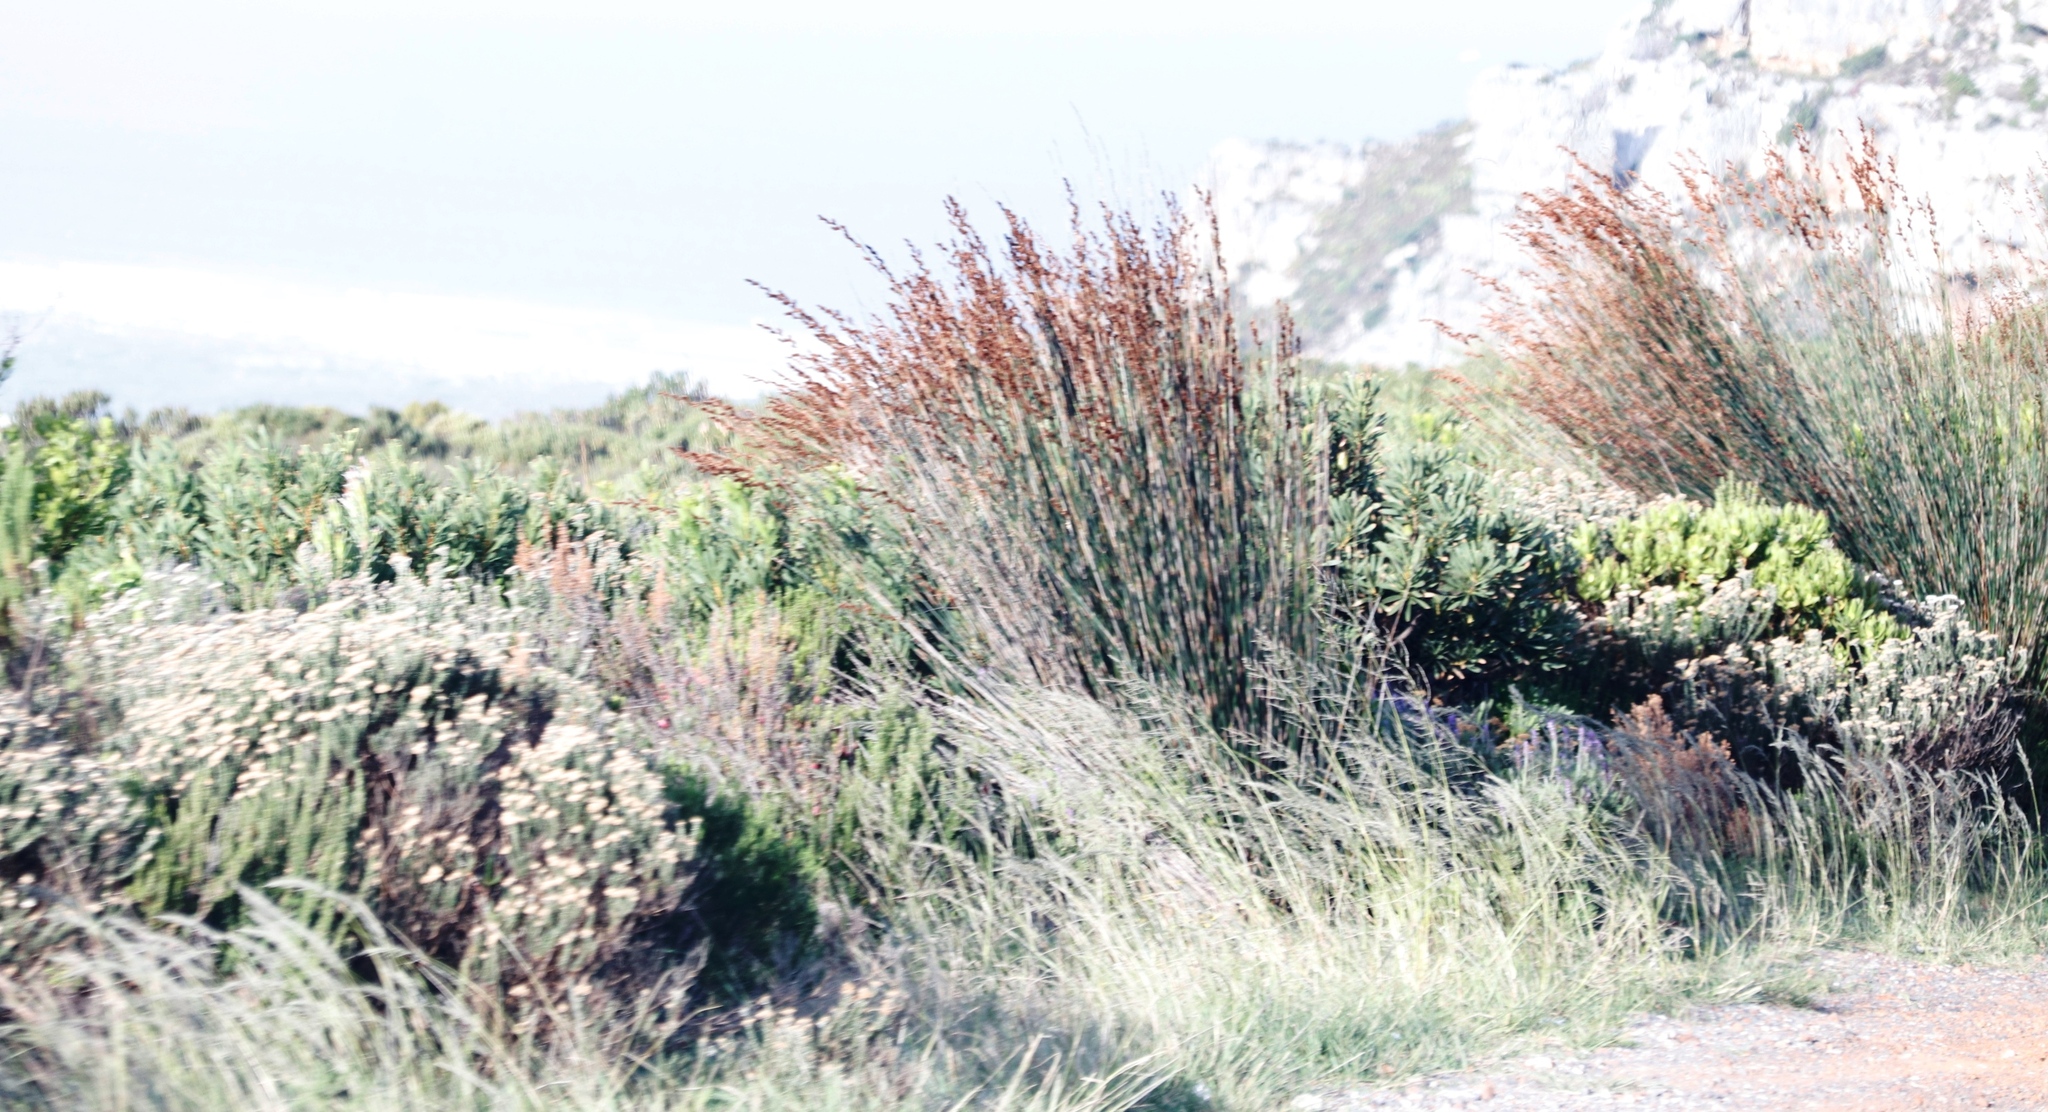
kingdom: Plantae
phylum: Tracheophyta
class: Liliopsida
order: Poales
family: Restionaceae
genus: Thamnochortus
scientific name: Thamnochortus insignis
